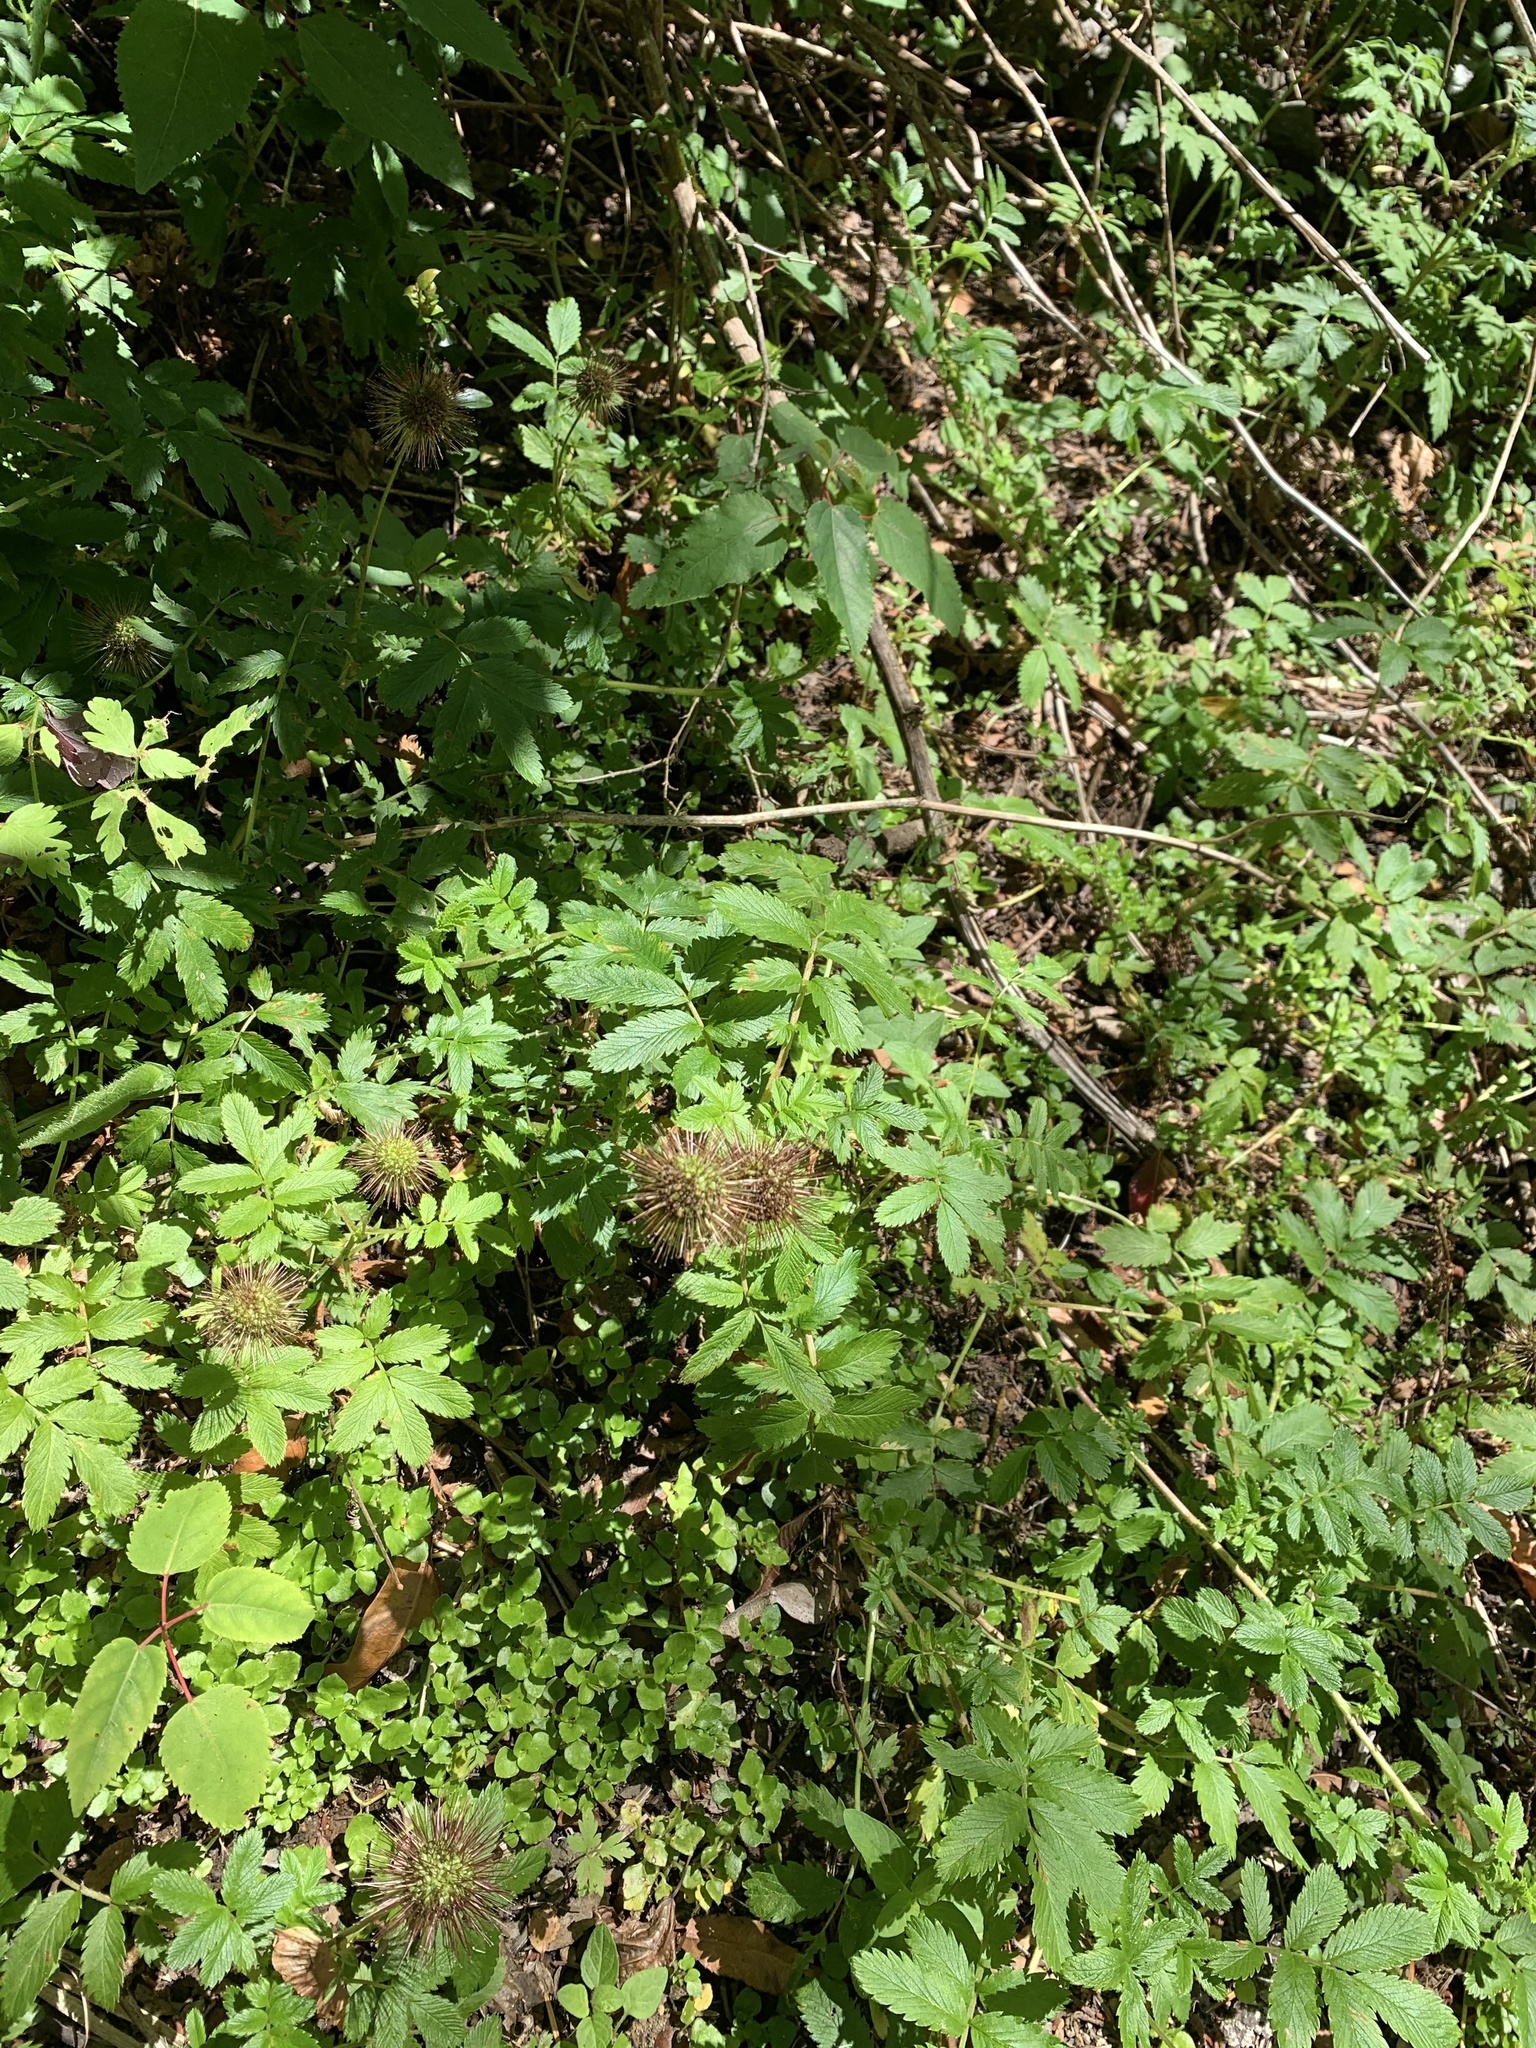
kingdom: Plantae
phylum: Tracheophyta
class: Magnoliopsida
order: Rosales
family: Rosaceae
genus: Acaena
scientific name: Acaena ovalifolia
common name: Two-spined acaena
